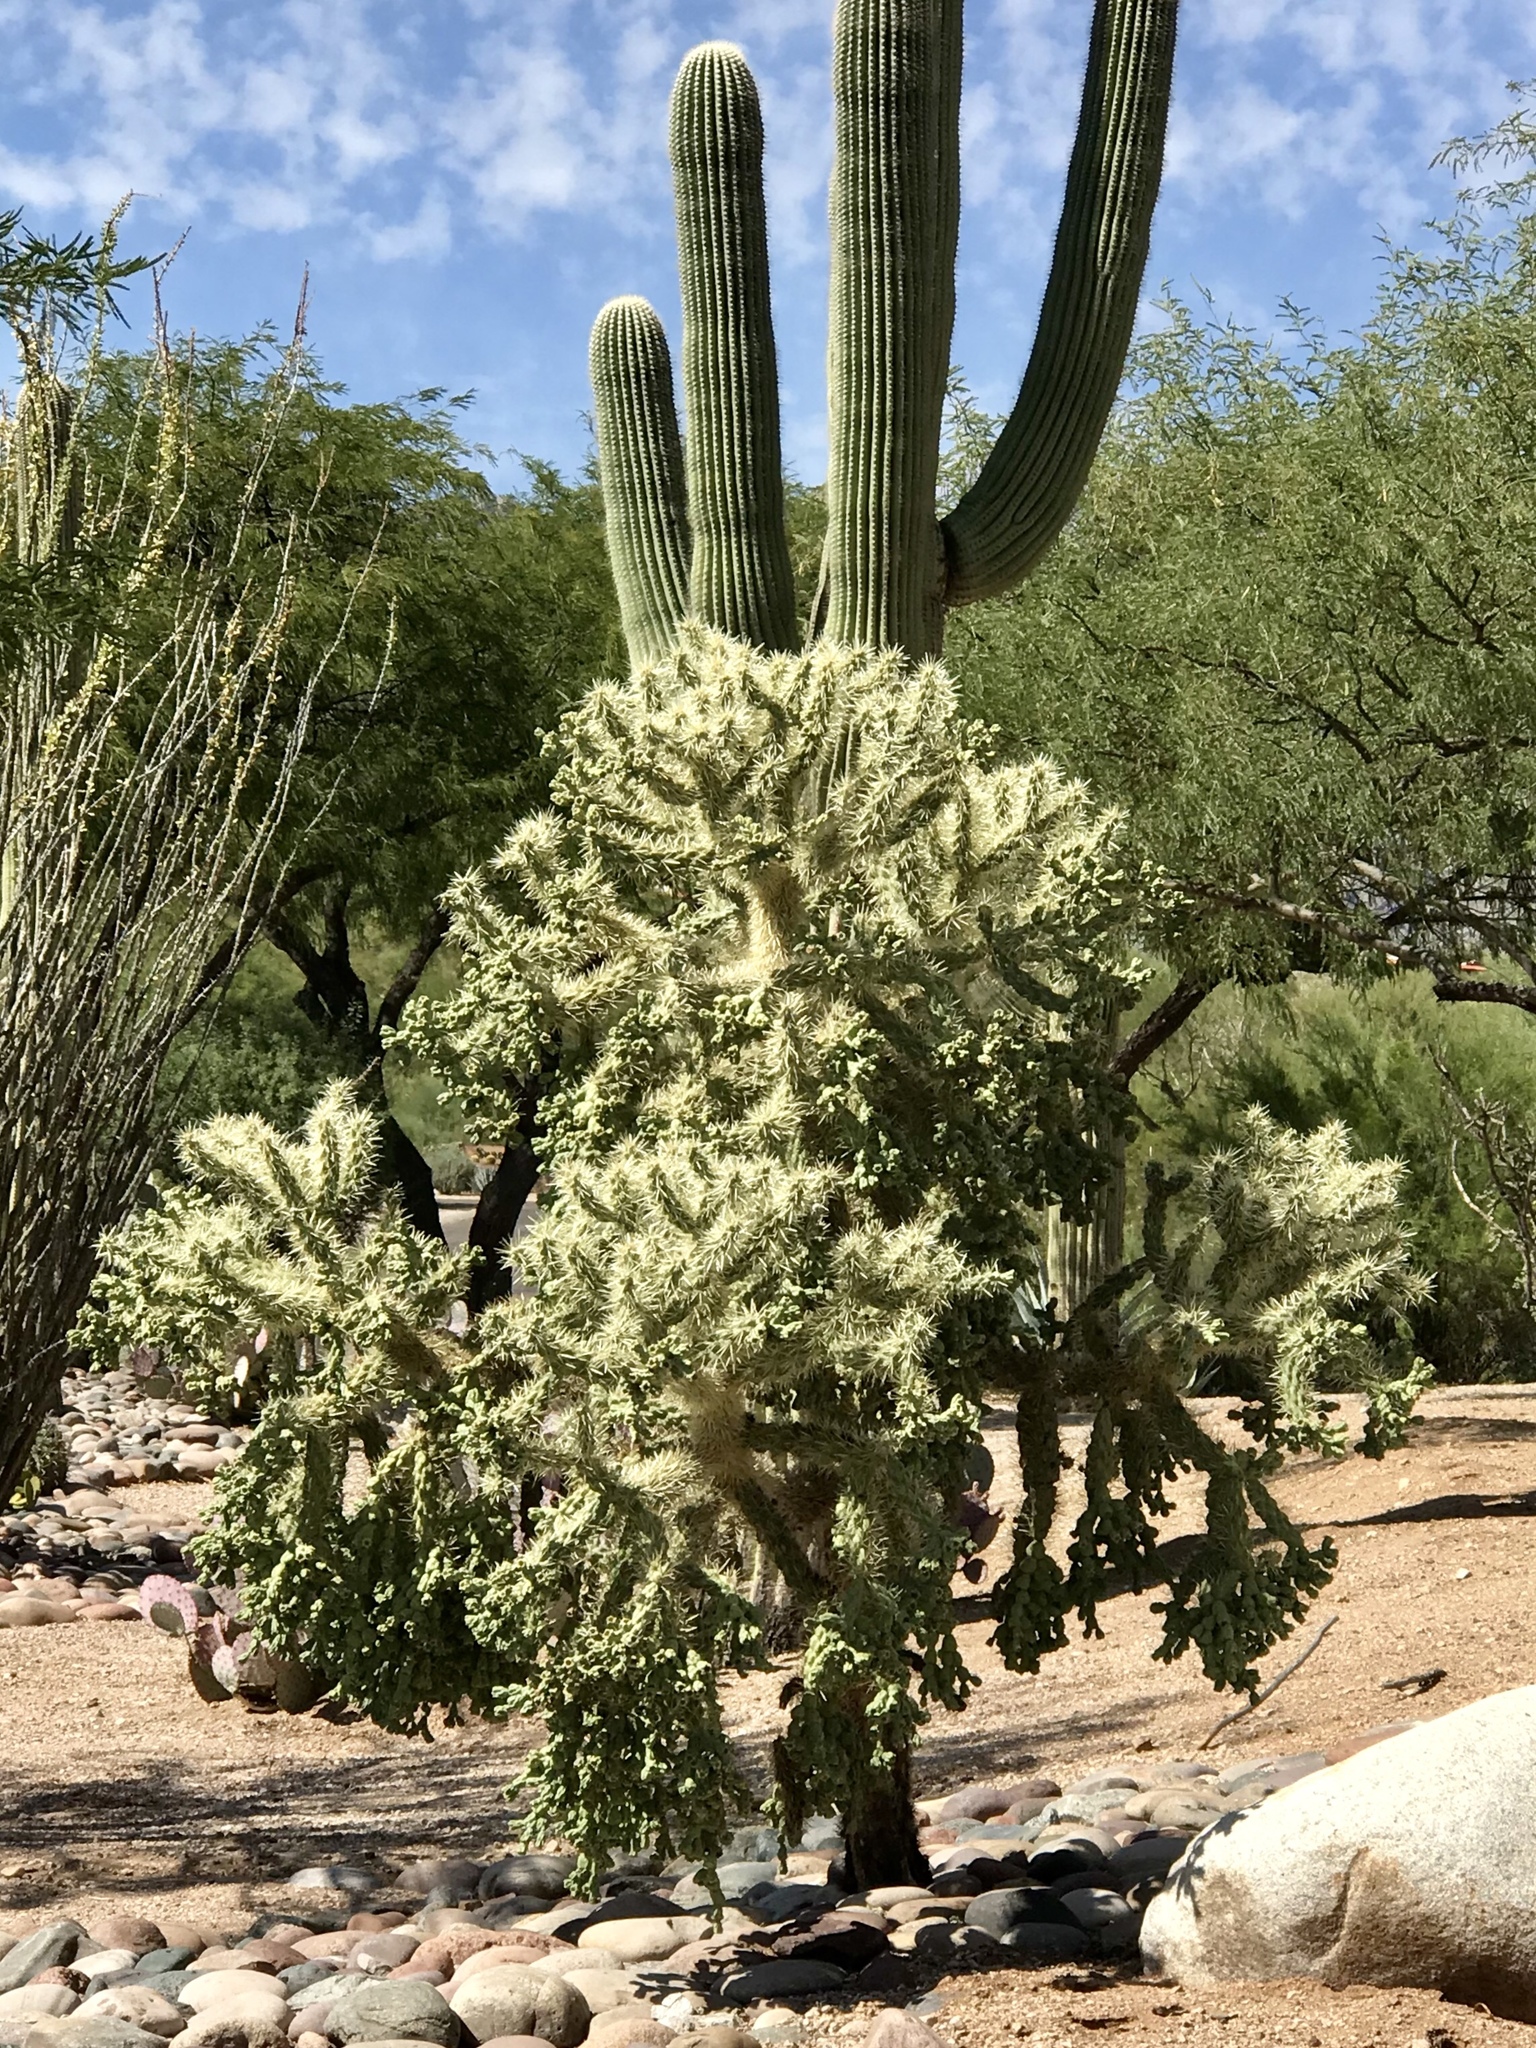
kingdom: Plantae
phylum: Tracheophyta
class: Magnoliopsida
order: Caryophyllales
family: Cactaceae
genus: Cylindropuntia
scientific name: Cylindropuntia fulgida
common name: Jumping cholla
